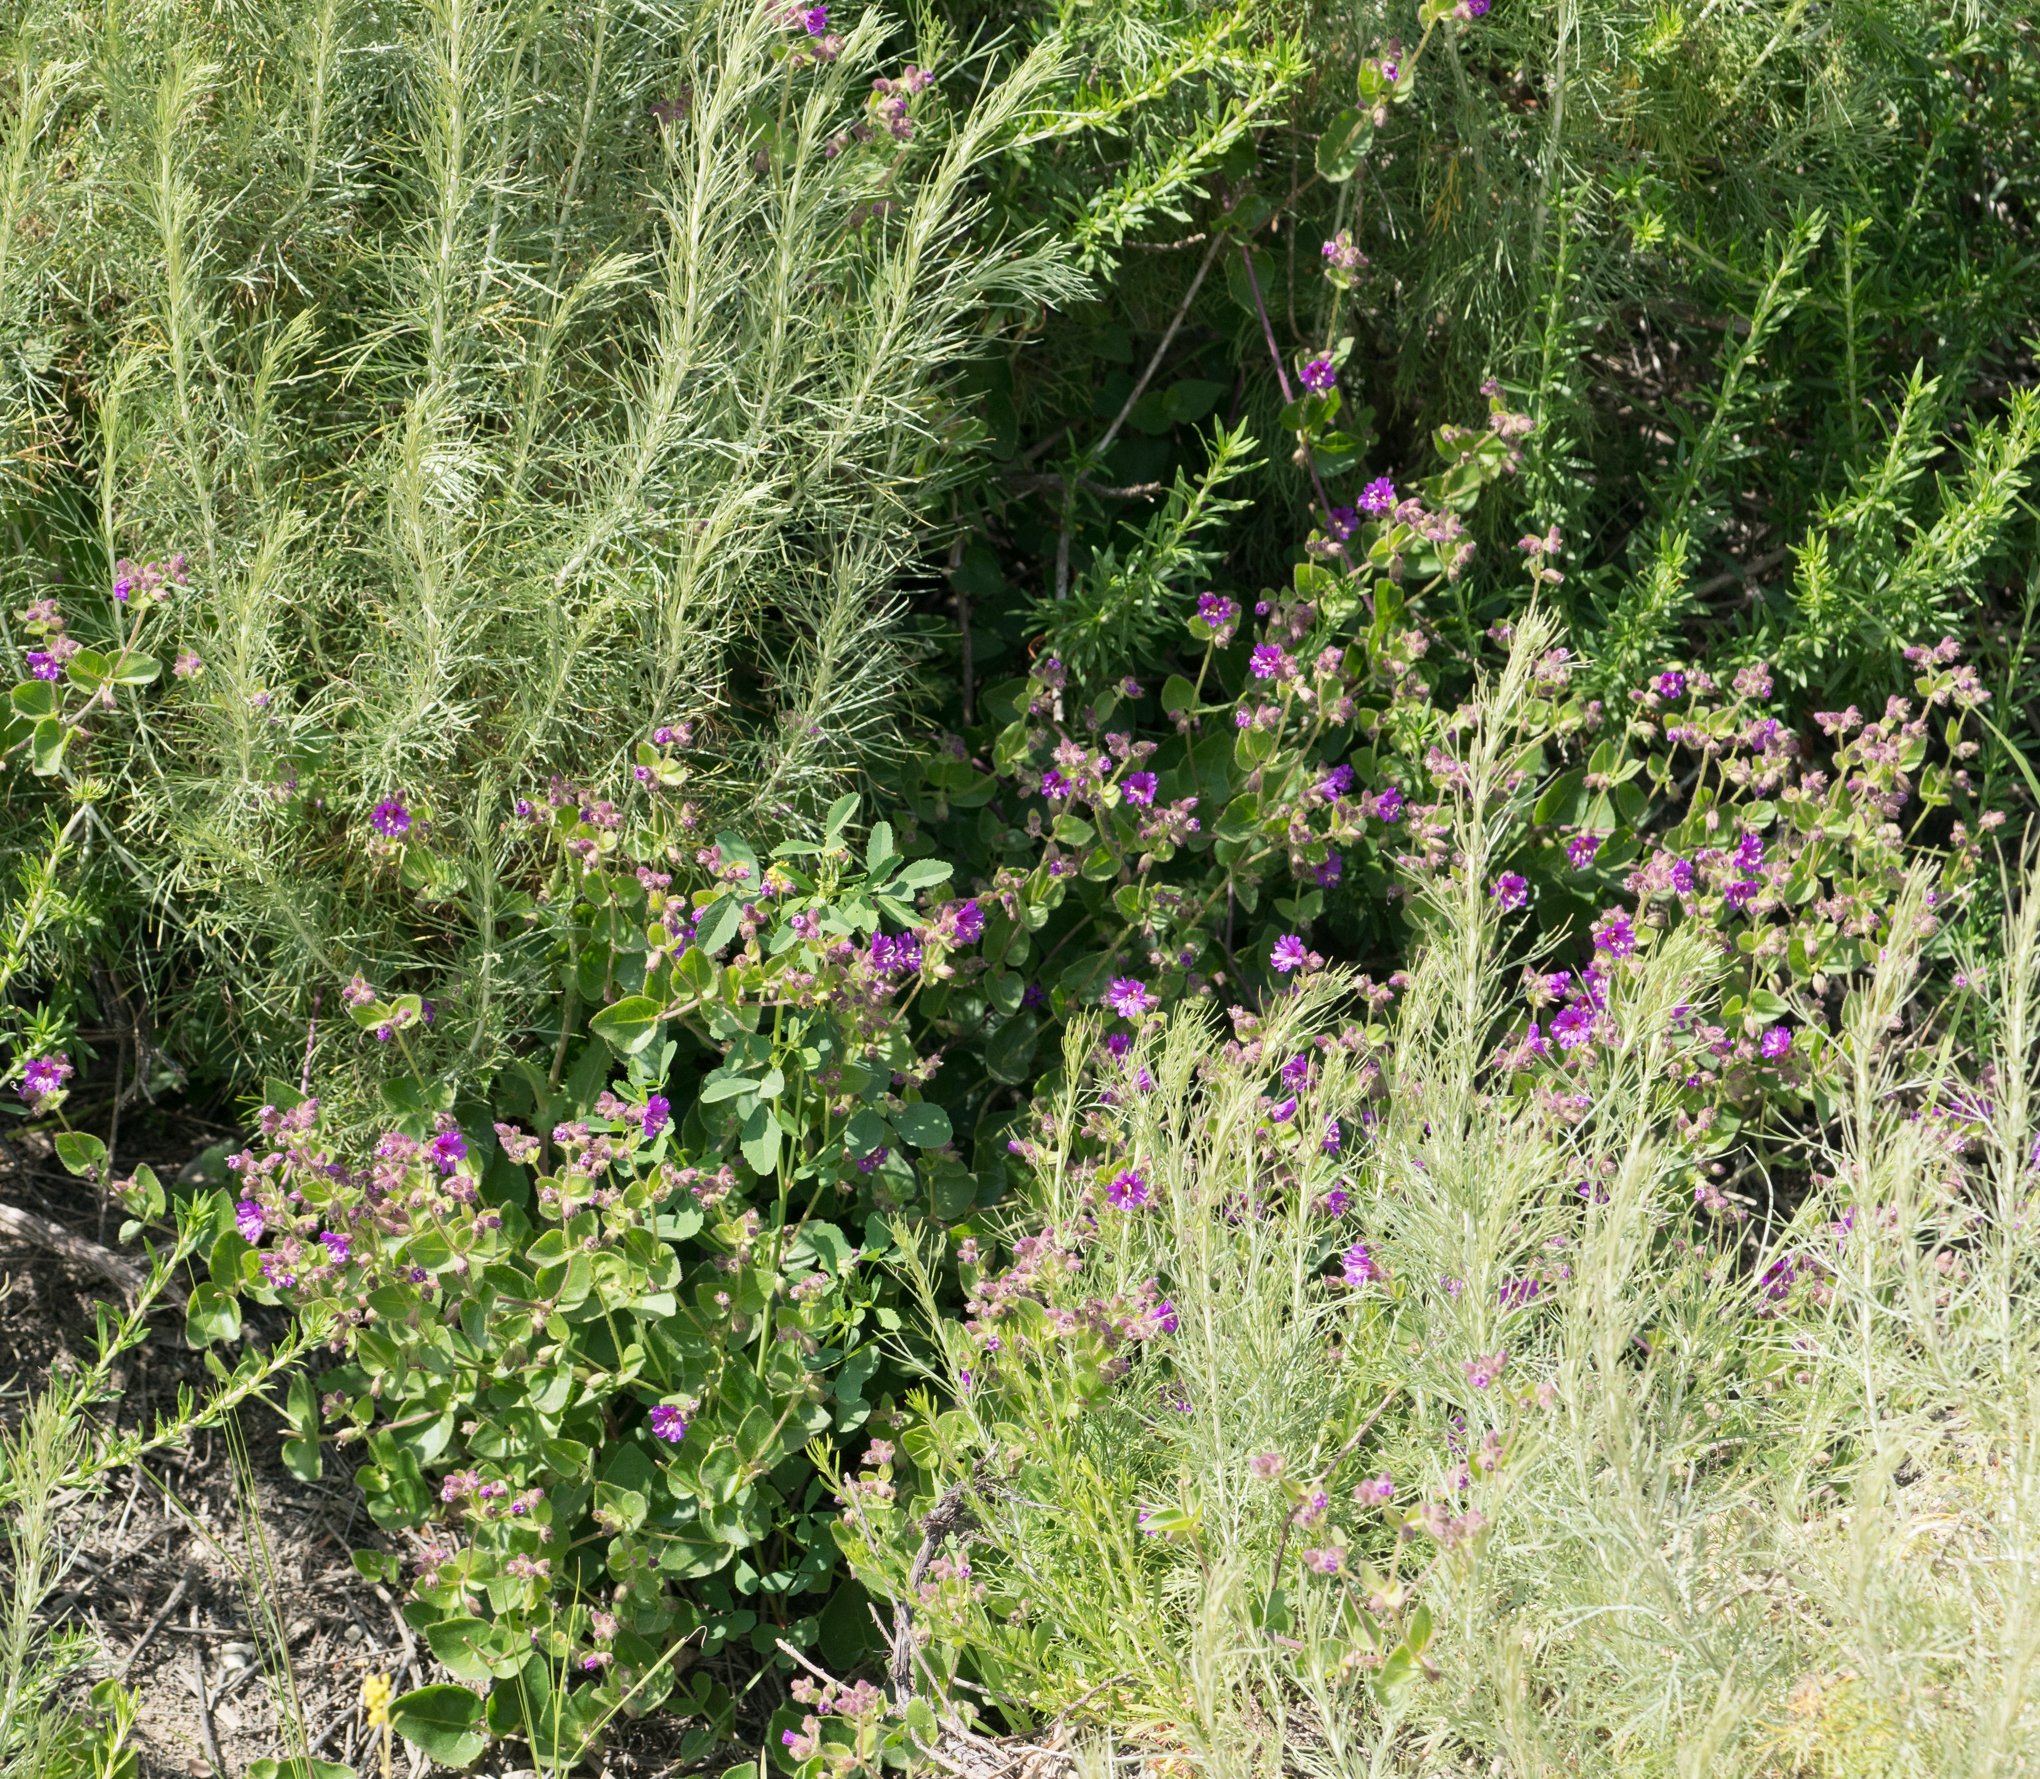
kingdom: Plantae
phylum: Tracheophyta
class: Magnoliopsida
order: Caryophyllales
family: Nyctaginaceae
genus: Mirabilis
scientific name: Mirabilis laevis
